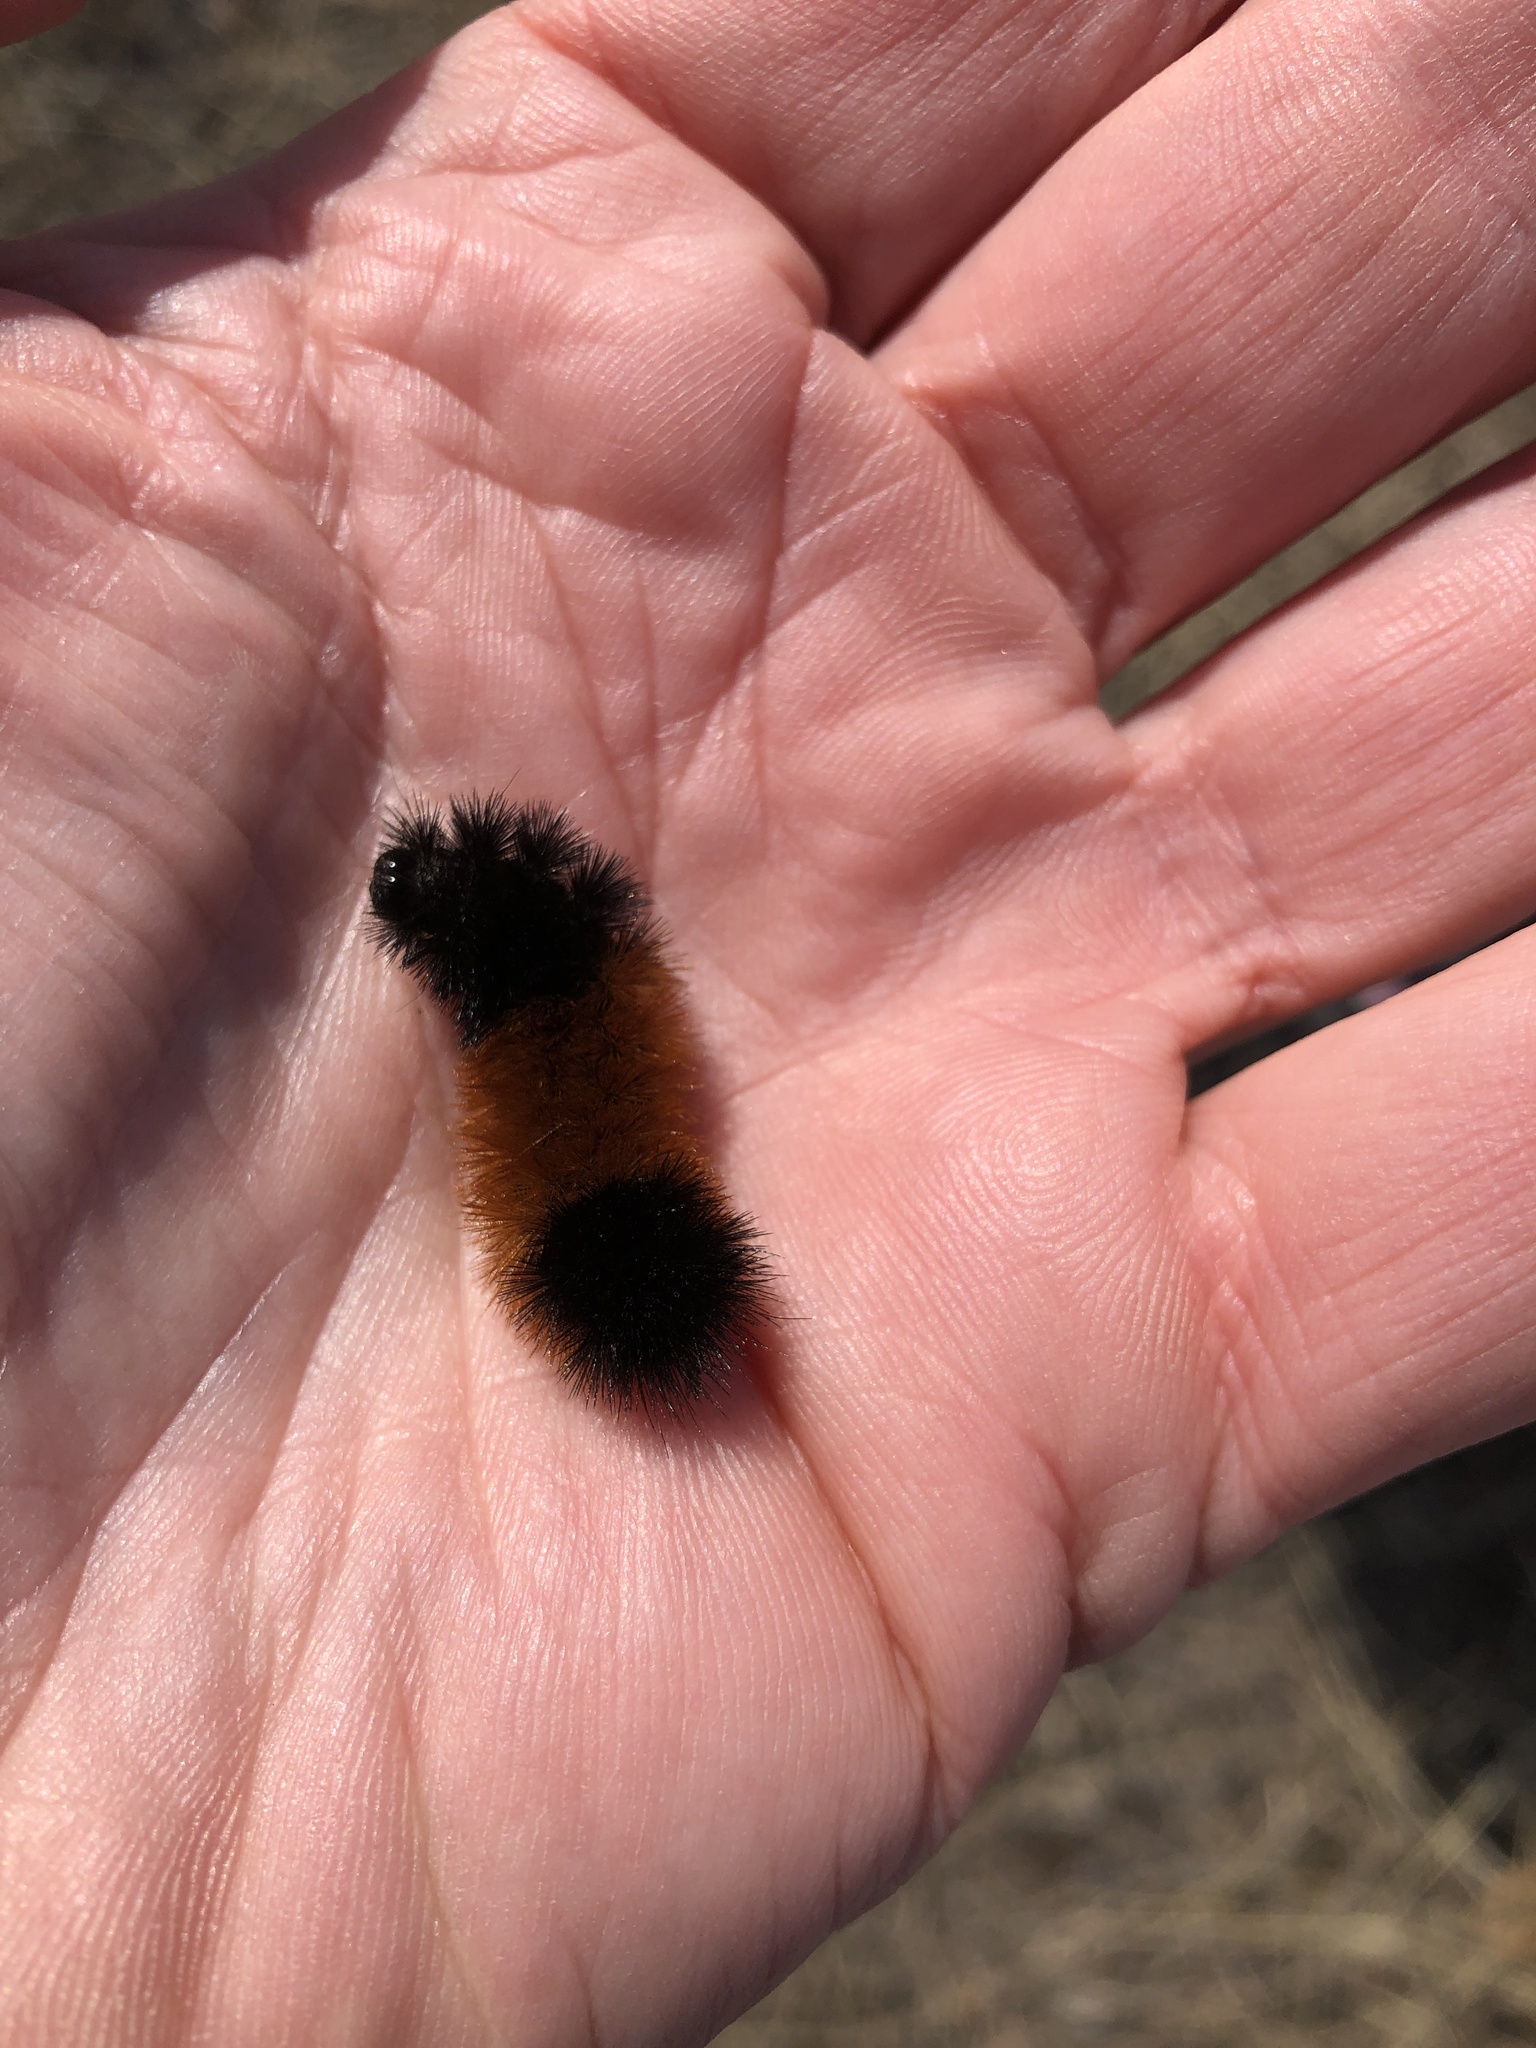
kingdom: Animalia
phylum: Arthropoda
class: Insecta
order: Lepidoptera
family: Erebidae
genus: Pyrrharctia
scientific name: Pyrrharctia isabella
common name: Isabella tiger moth
